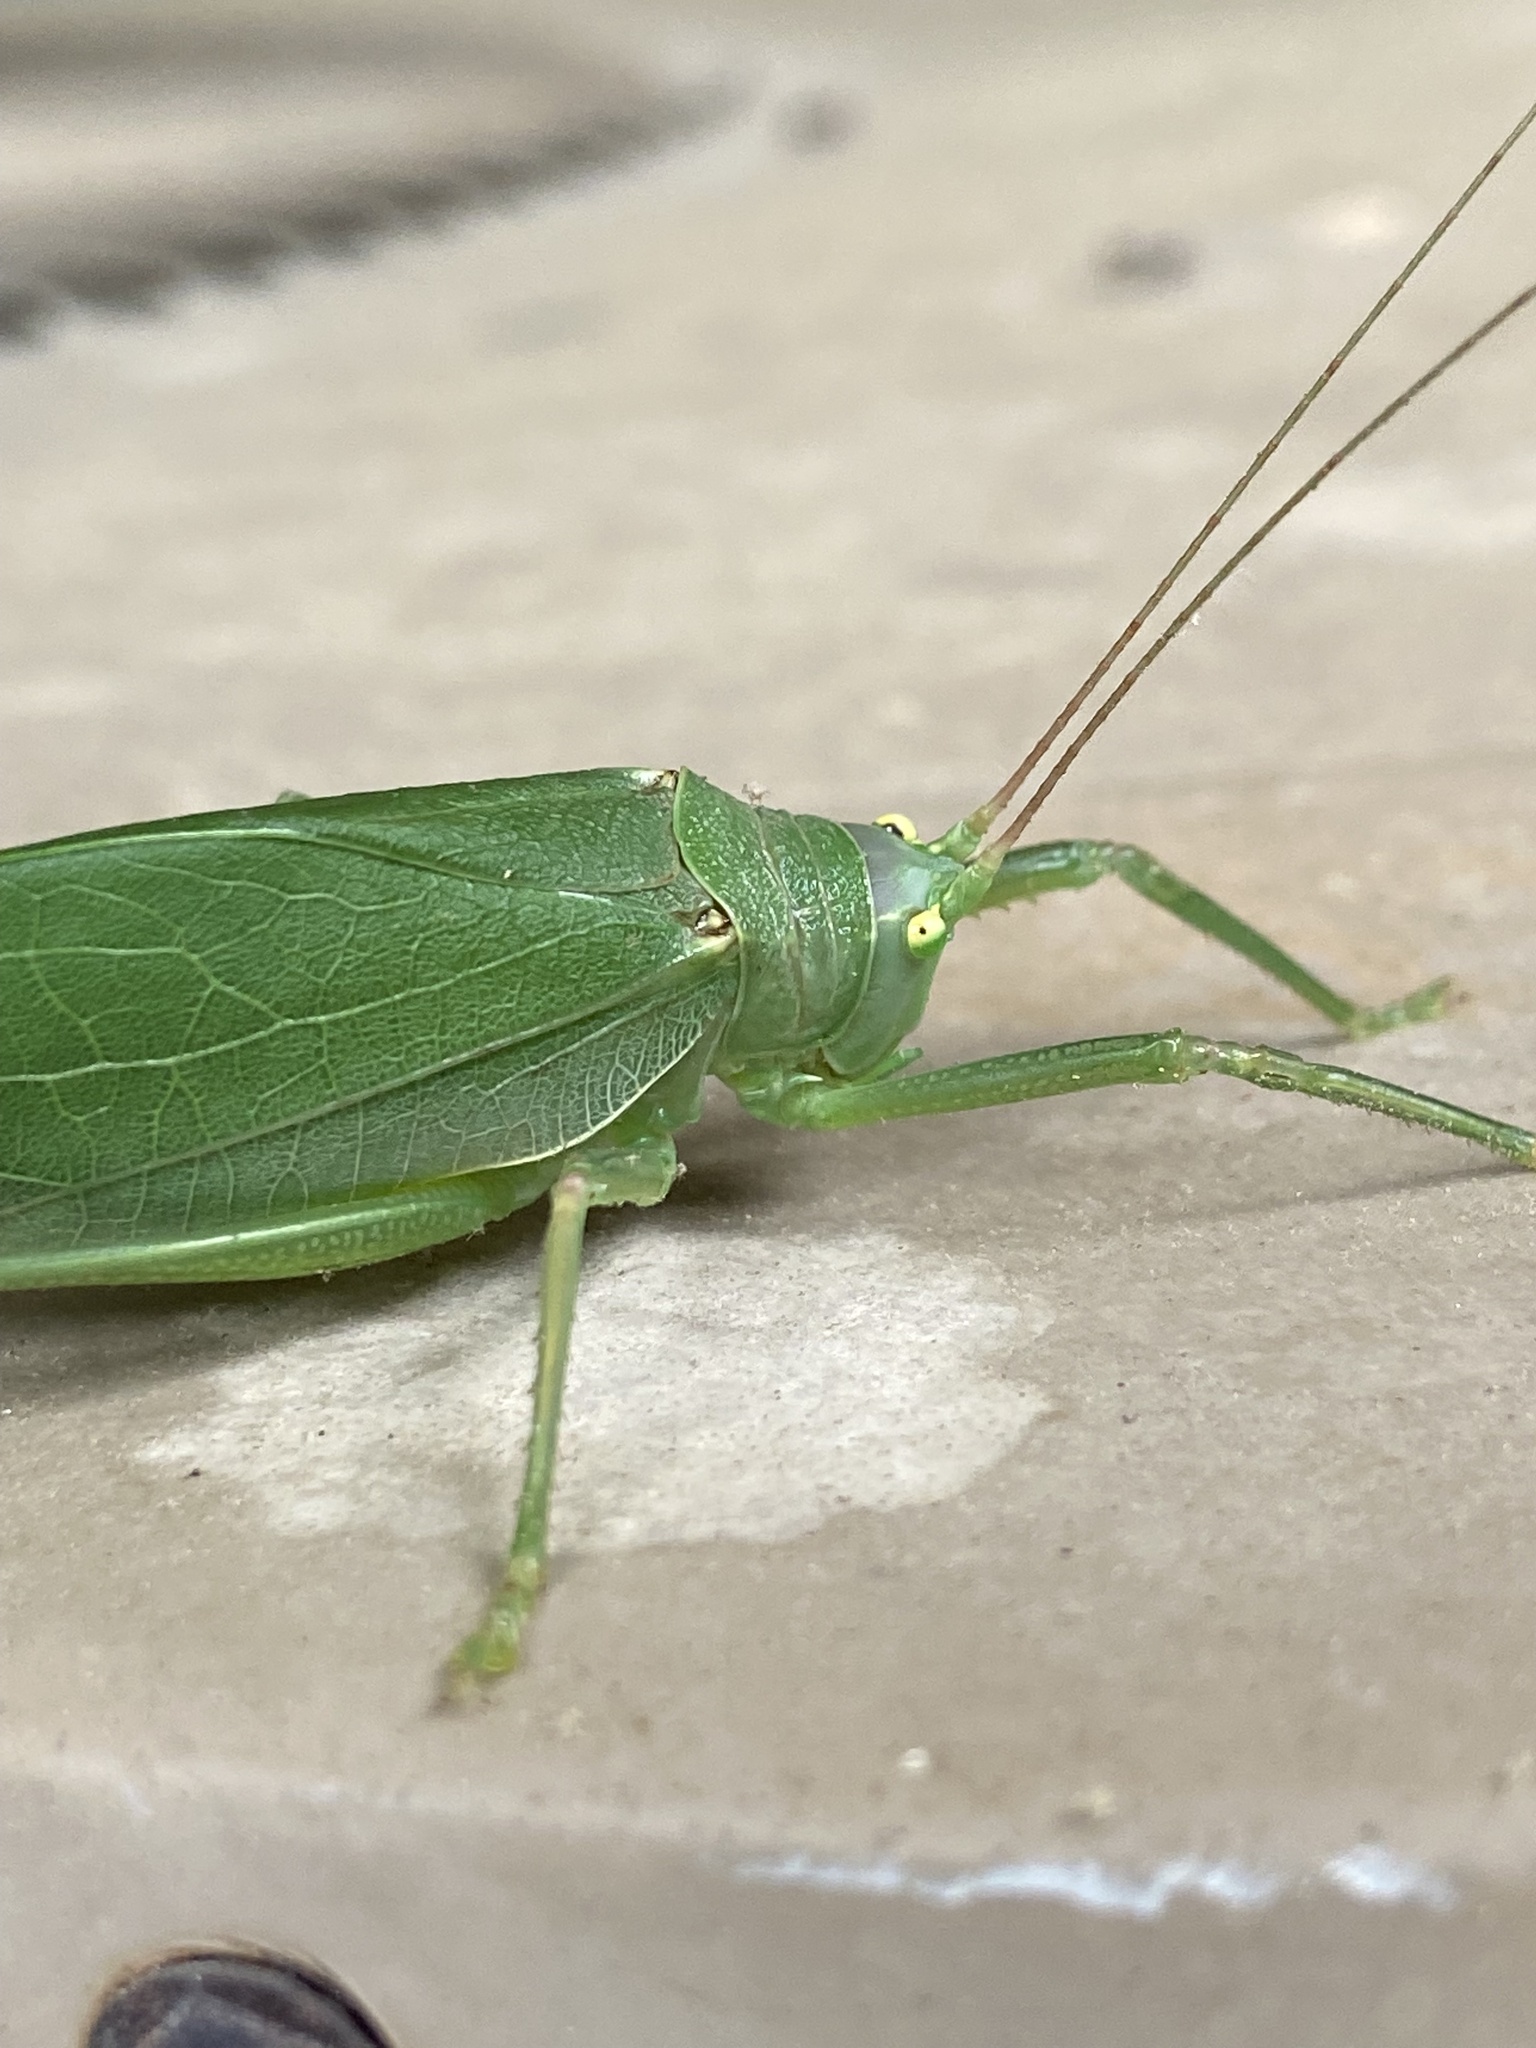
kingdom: Animalia
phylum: Arthropoda
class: Insecta
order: Orthoptera
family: Tettigoniidae
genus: Pterophylla
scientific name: Pterophylla camellifolia
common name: Common true katydid
